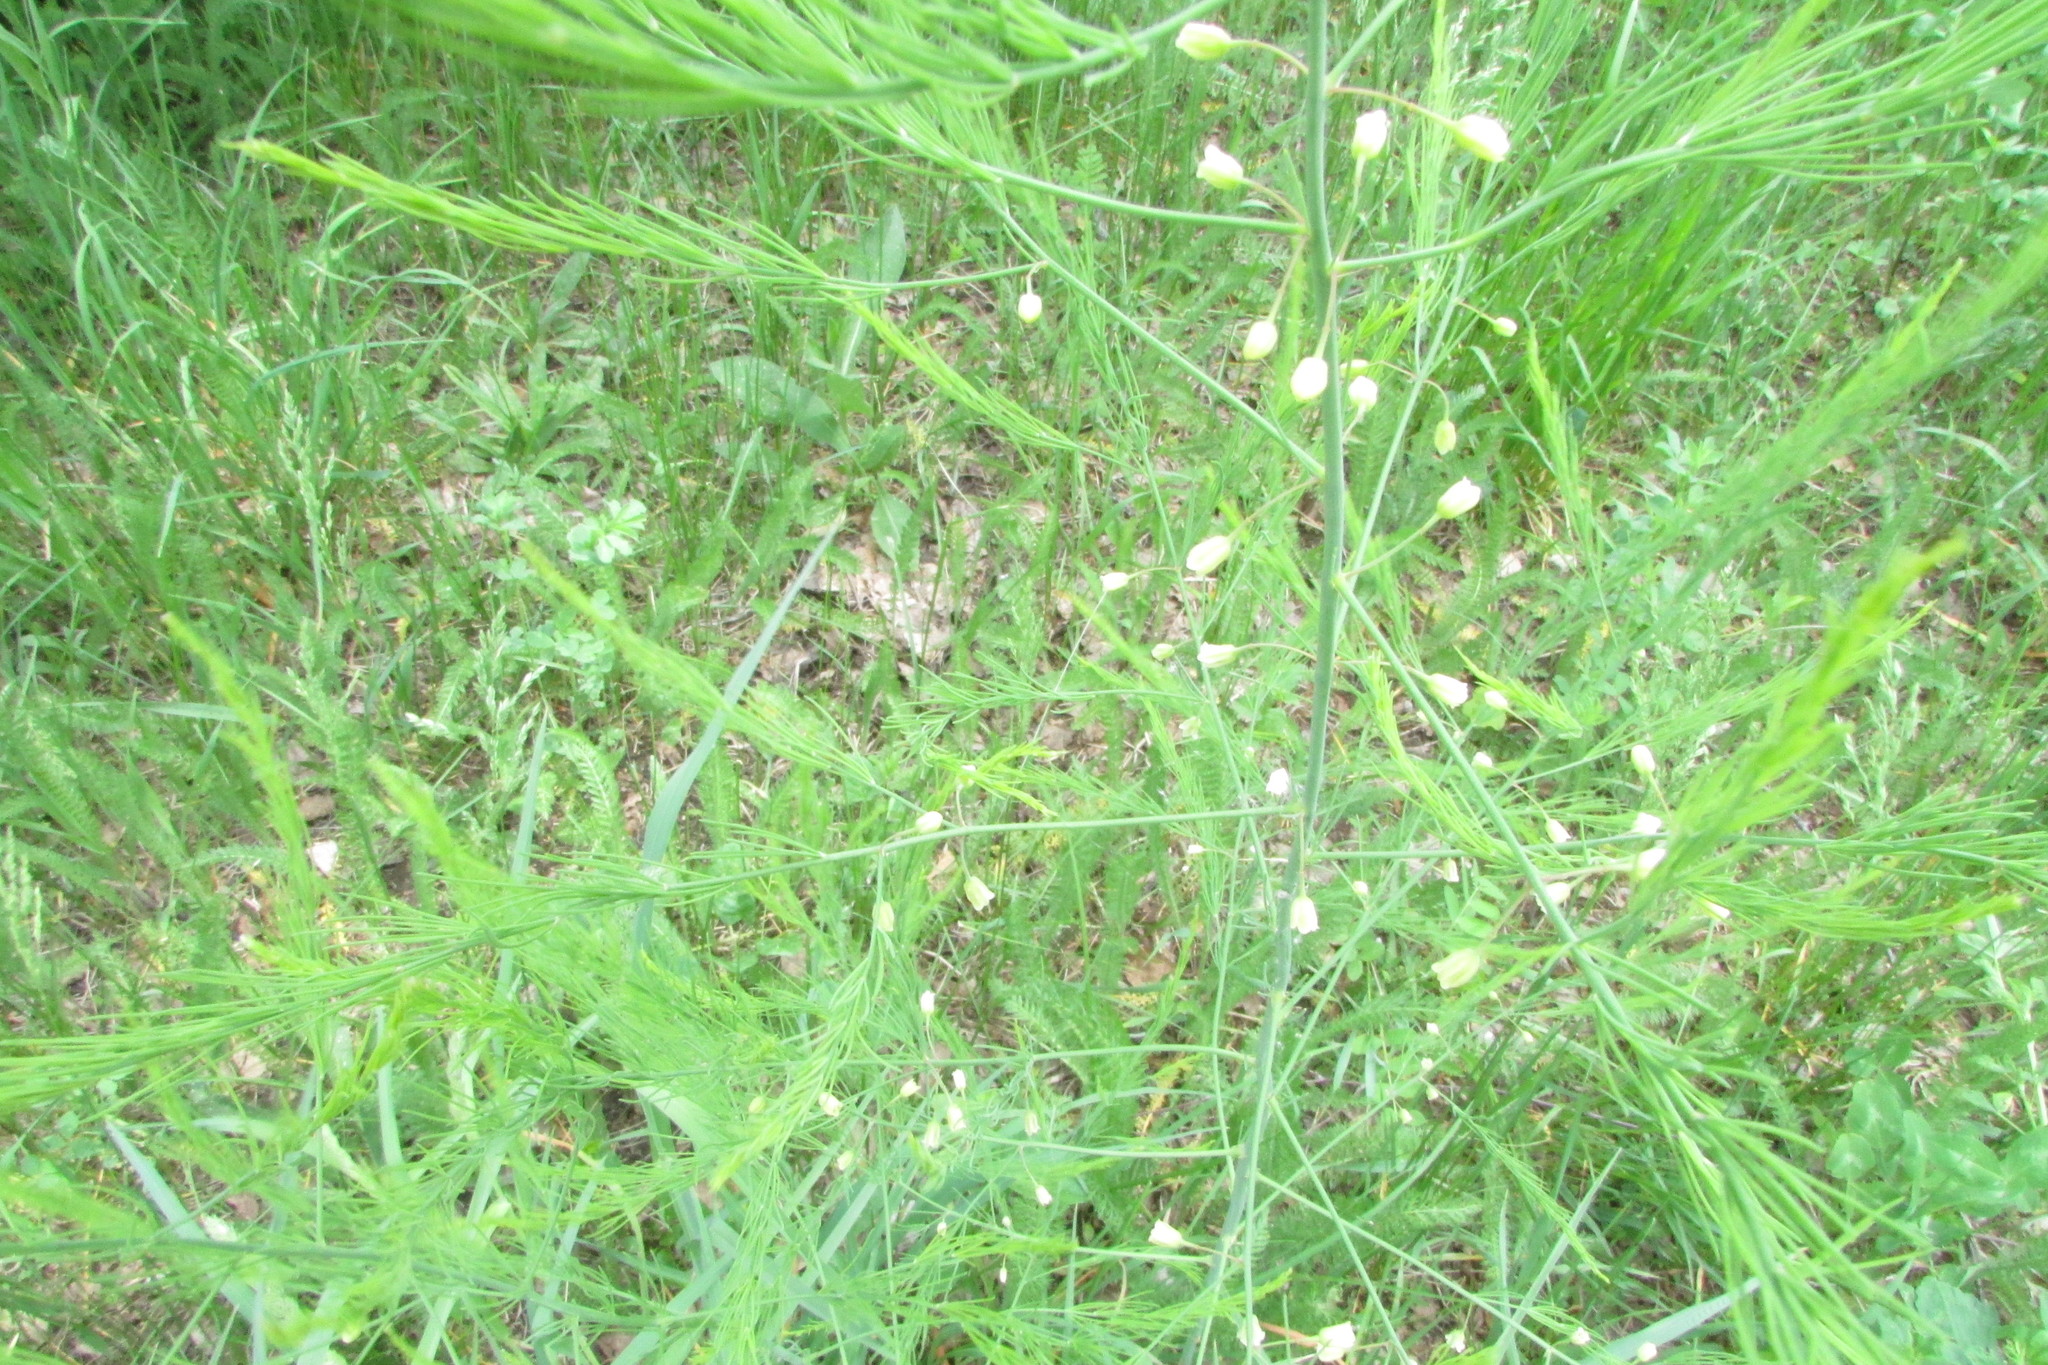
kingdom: Plantae
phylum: Tracheophyta
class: Liliopsida
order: Asparagales
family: Asparagaceae
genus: Asparagus
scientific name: Asparagus officinalis
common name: Garden asparagus
